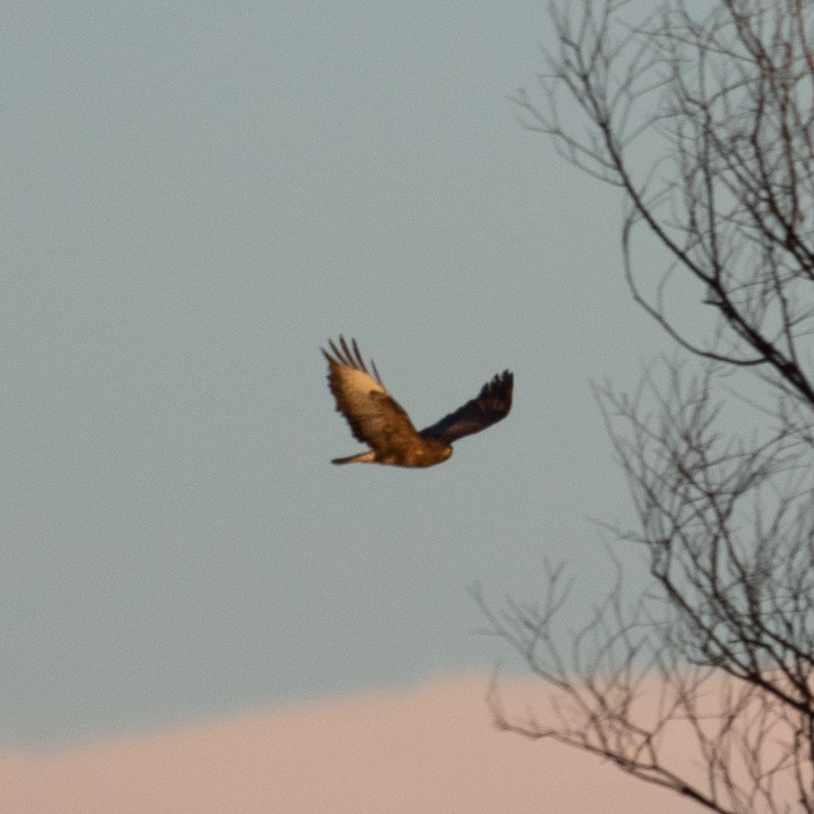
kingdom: Animalia
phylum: Chordata
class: Aves
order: Accipitriformes
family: Accipitridae
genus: Buteo
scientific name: Buteo buteo
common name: Common buzzard
